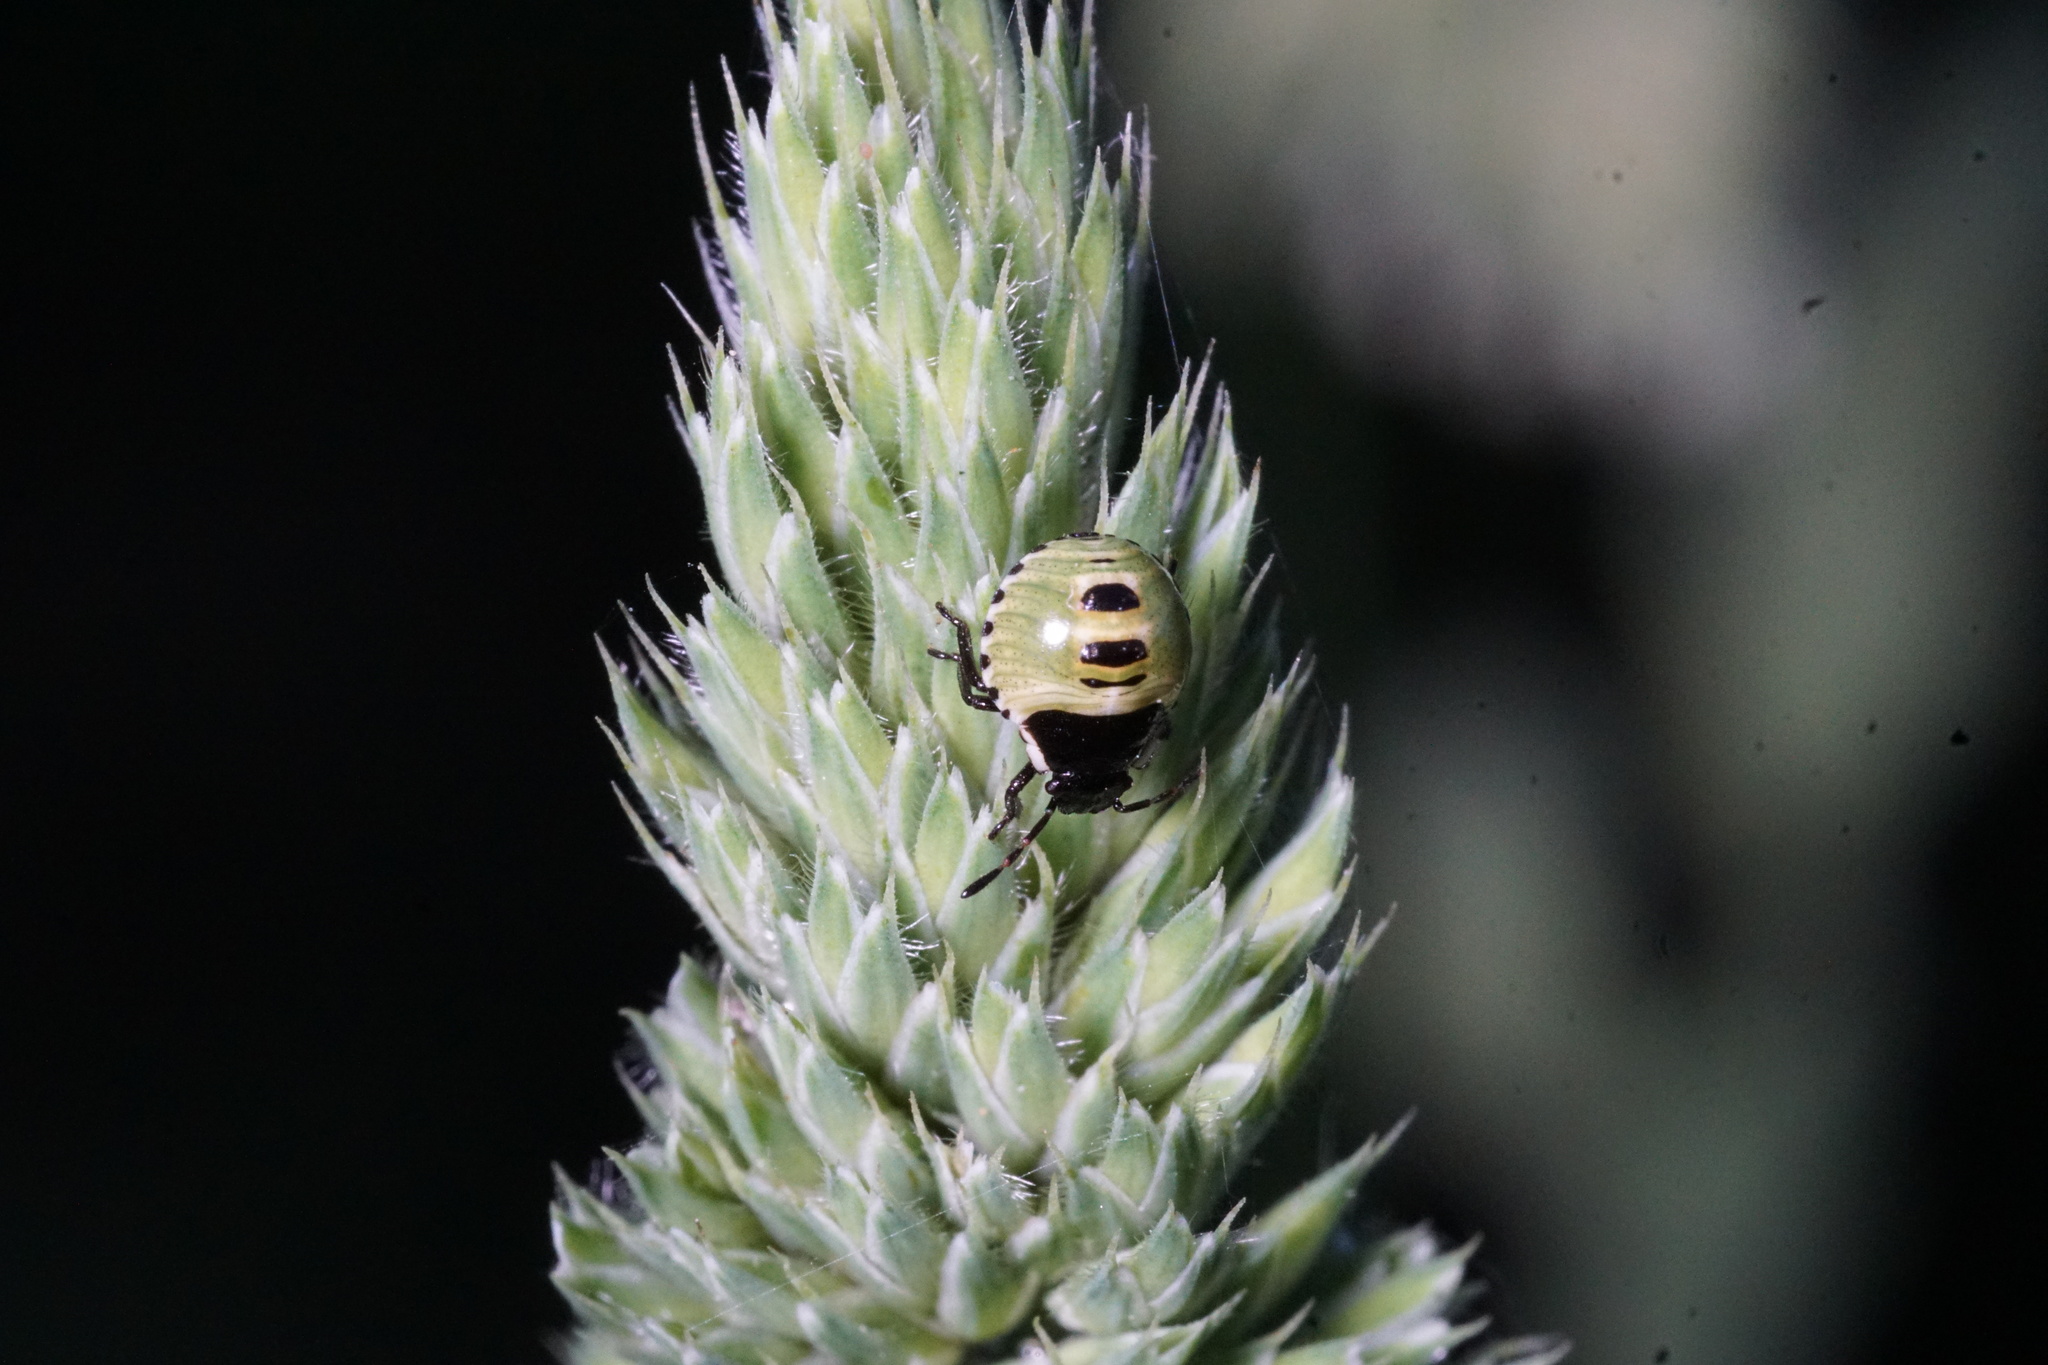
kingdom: Animalia
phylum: Arthropoda
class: Insecta
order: Hemiptera
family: Pentatomidae
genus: Palomena
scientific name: Palomena prasina
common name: Green shieldbug
